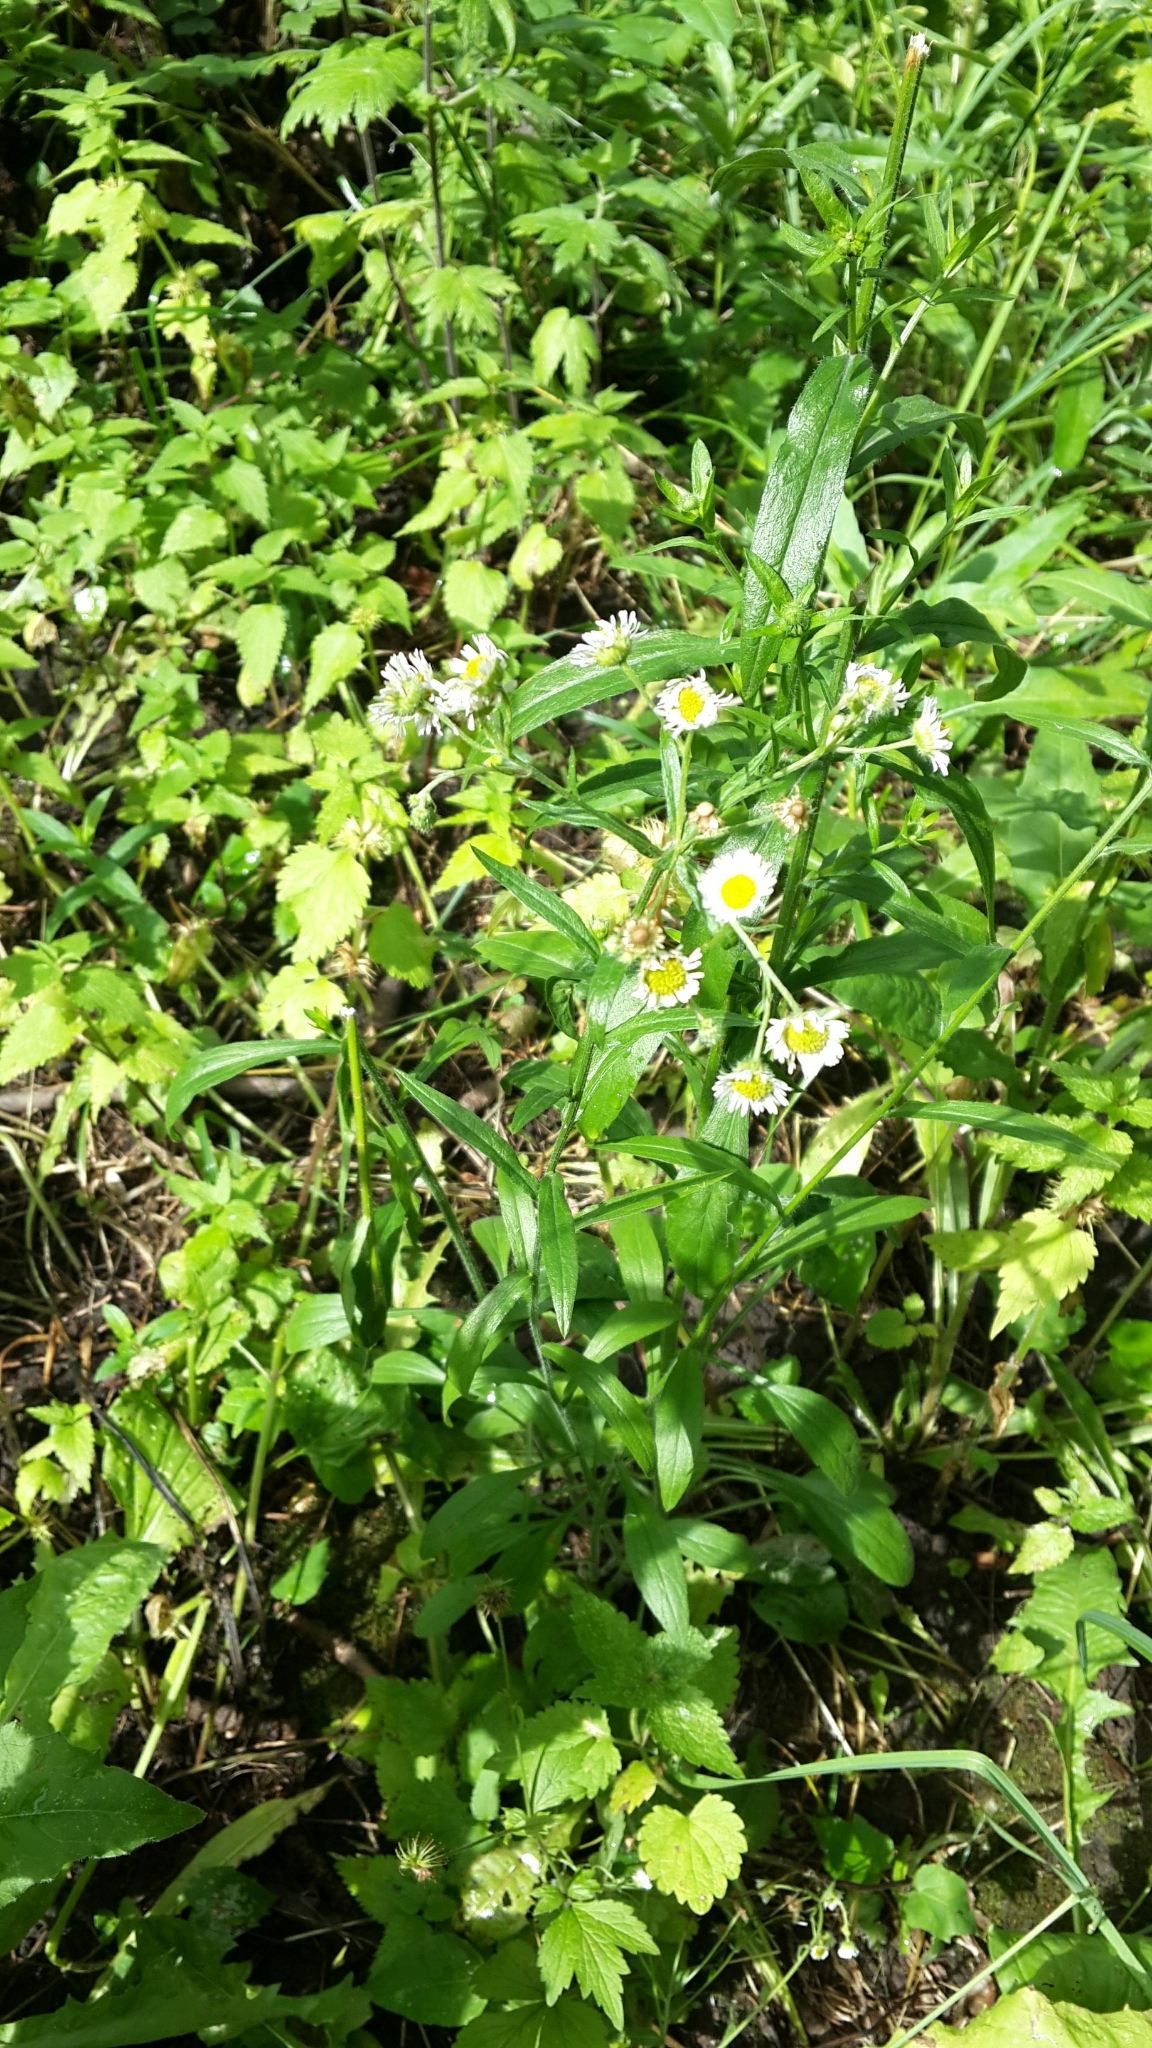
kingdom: Plantae
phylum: Tracheophyta
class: Magnoliopsida
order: Asterales
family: Asteraceae
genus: Erigeron
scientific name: Erigeron annuus
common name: Tall fleabane
